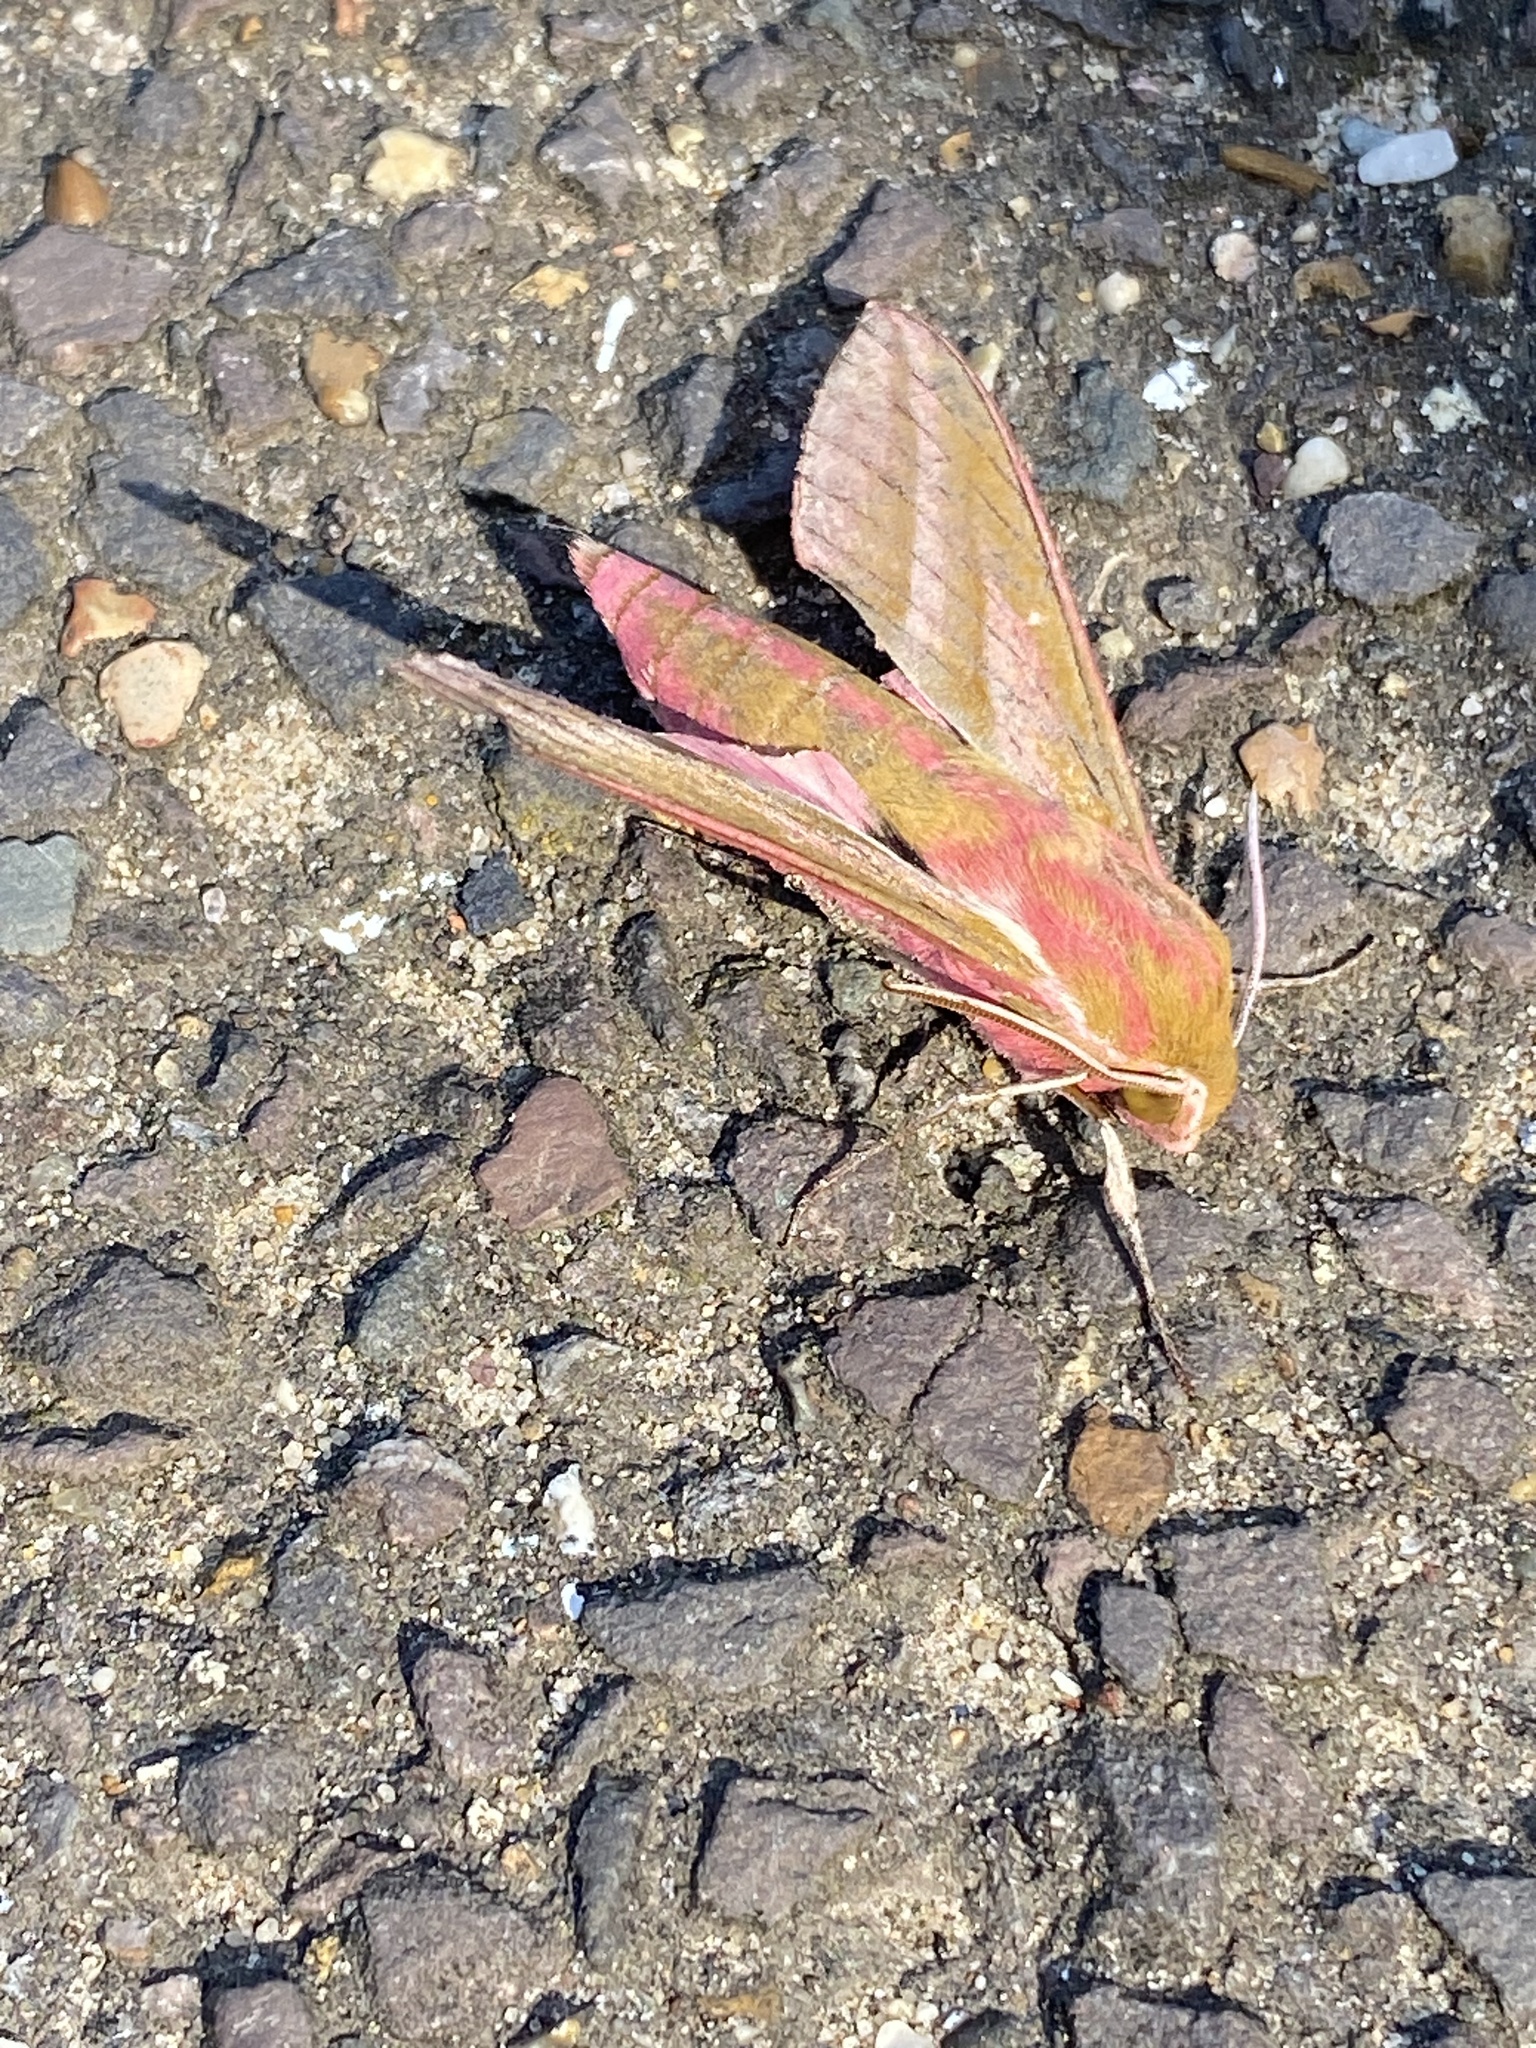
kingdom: Animalia
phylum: Arthropoda
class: Insecta
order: Lepidoptera
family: Sphingidae
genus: Deilephila
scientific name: Deilephila elpenor
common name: Elephant hawk-moth
